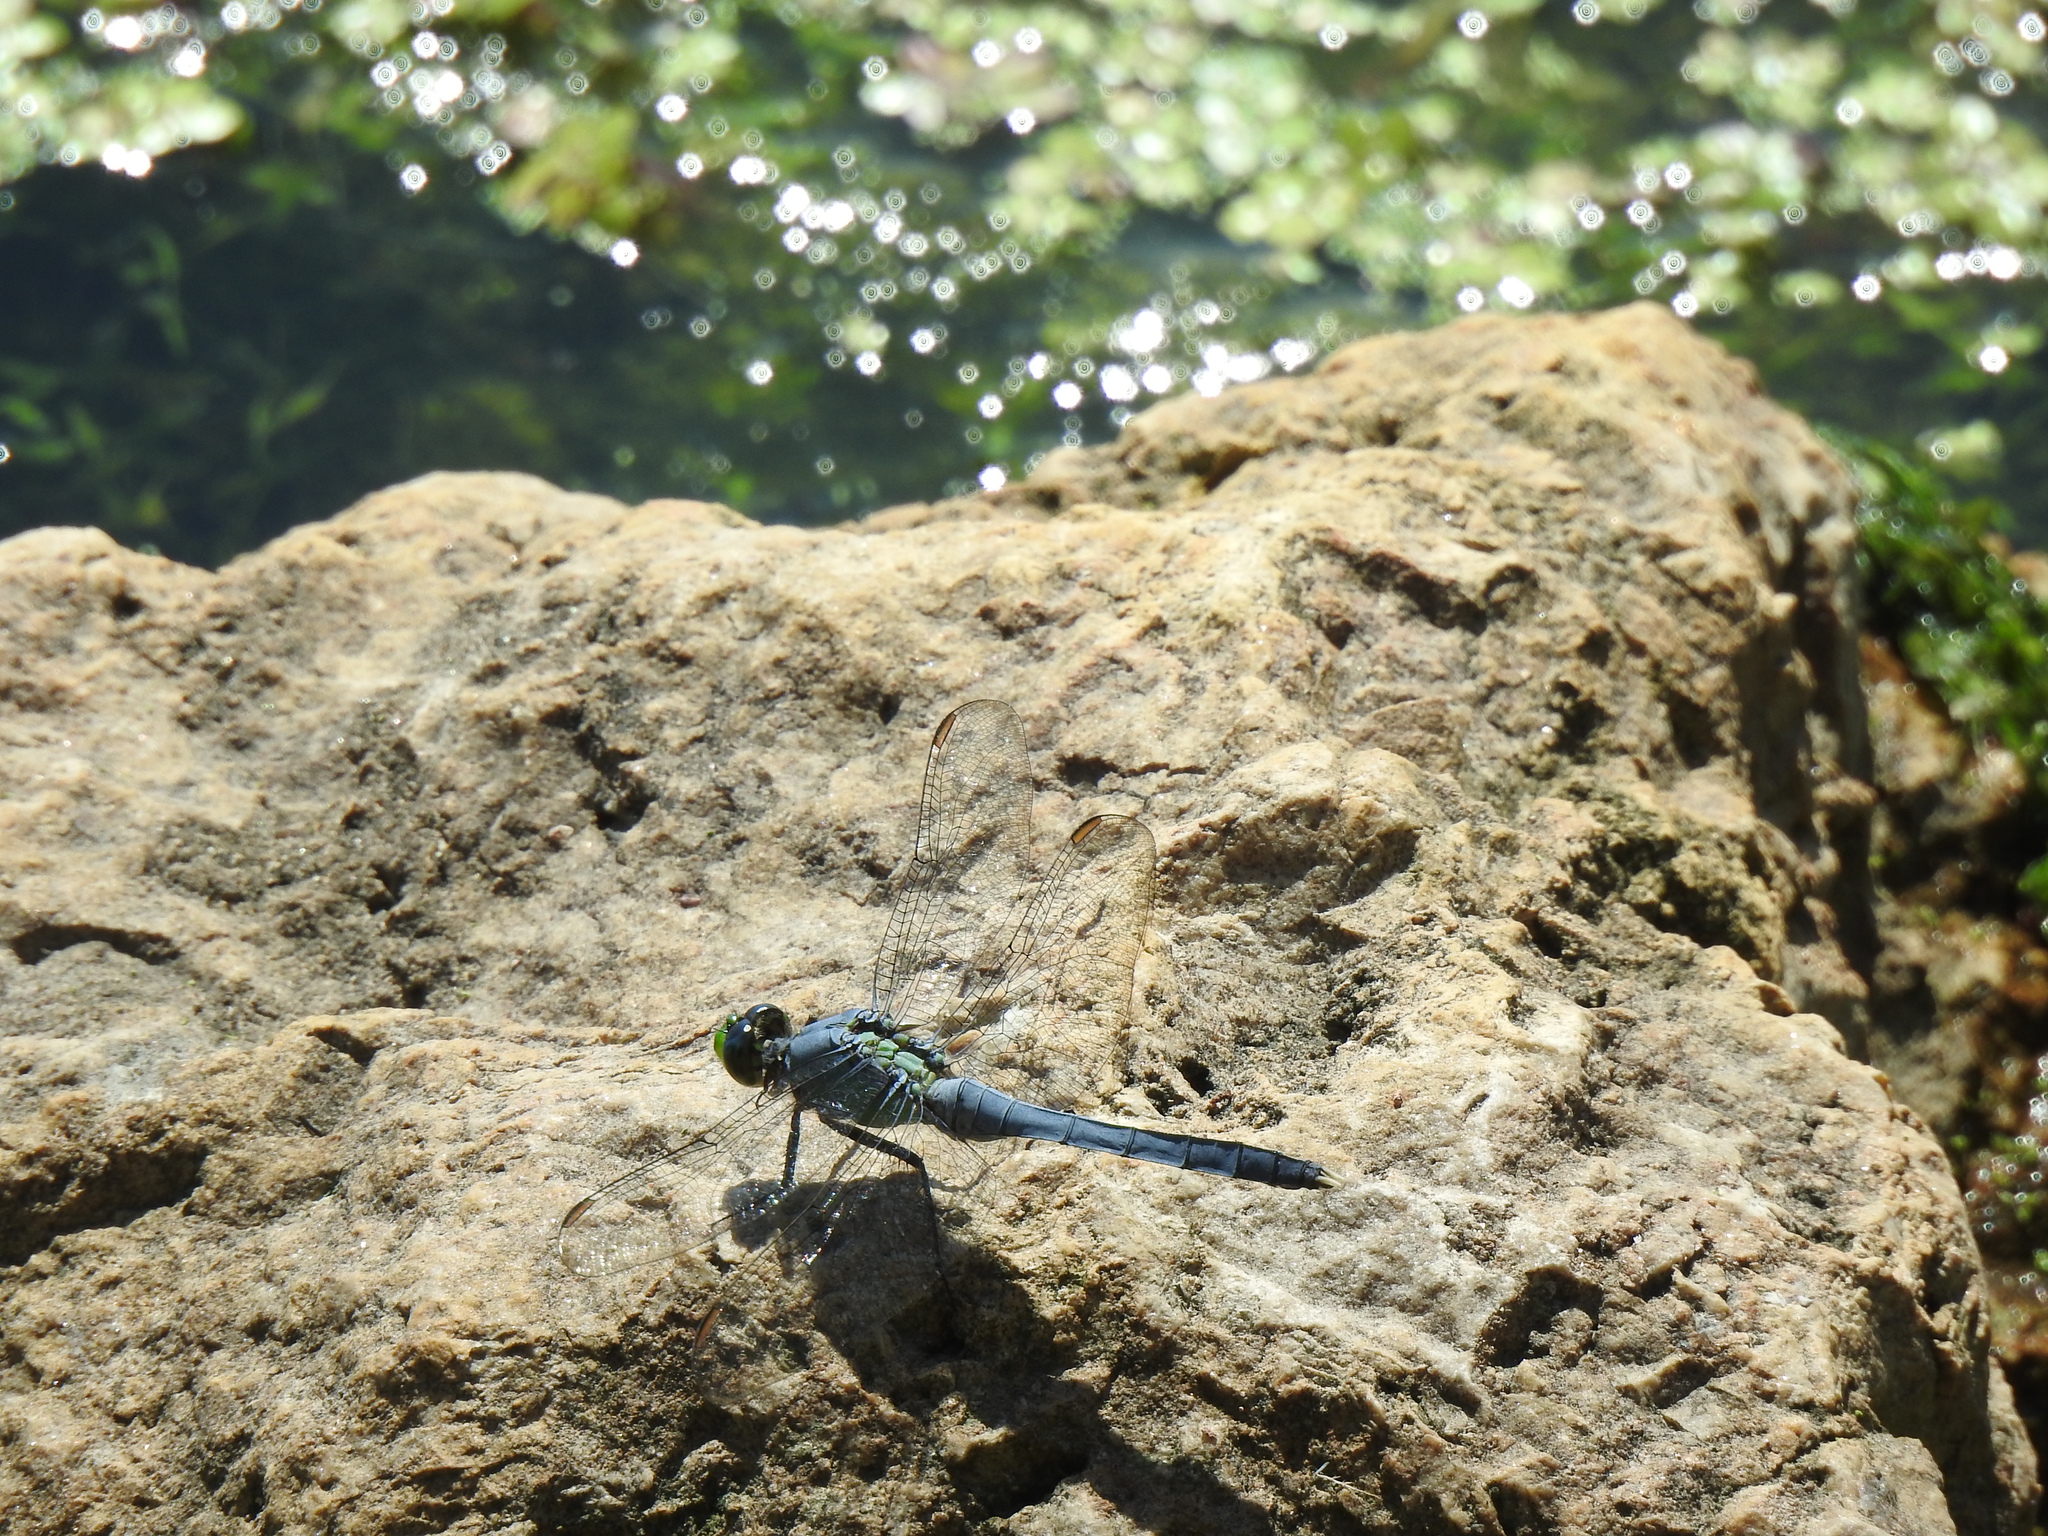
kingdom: Animalia
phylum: Arthropoda
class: Insecta
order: Odonata
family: Libellulidae
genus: Erythemis
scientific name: Erythemis simplicicollis
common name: Eastern pondhawk
